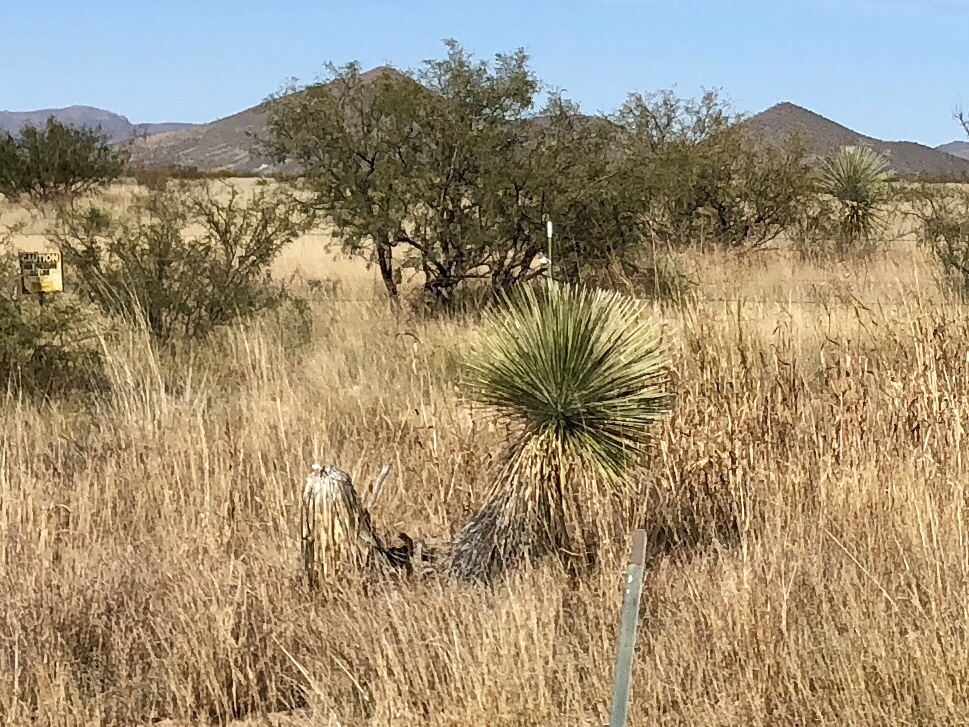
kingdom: Plantae
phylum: Tracheophyta
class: Liliopsida
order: Asparagales
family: Asparagaceae
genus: Yucca
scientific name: Yucca elata
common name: Palmella
